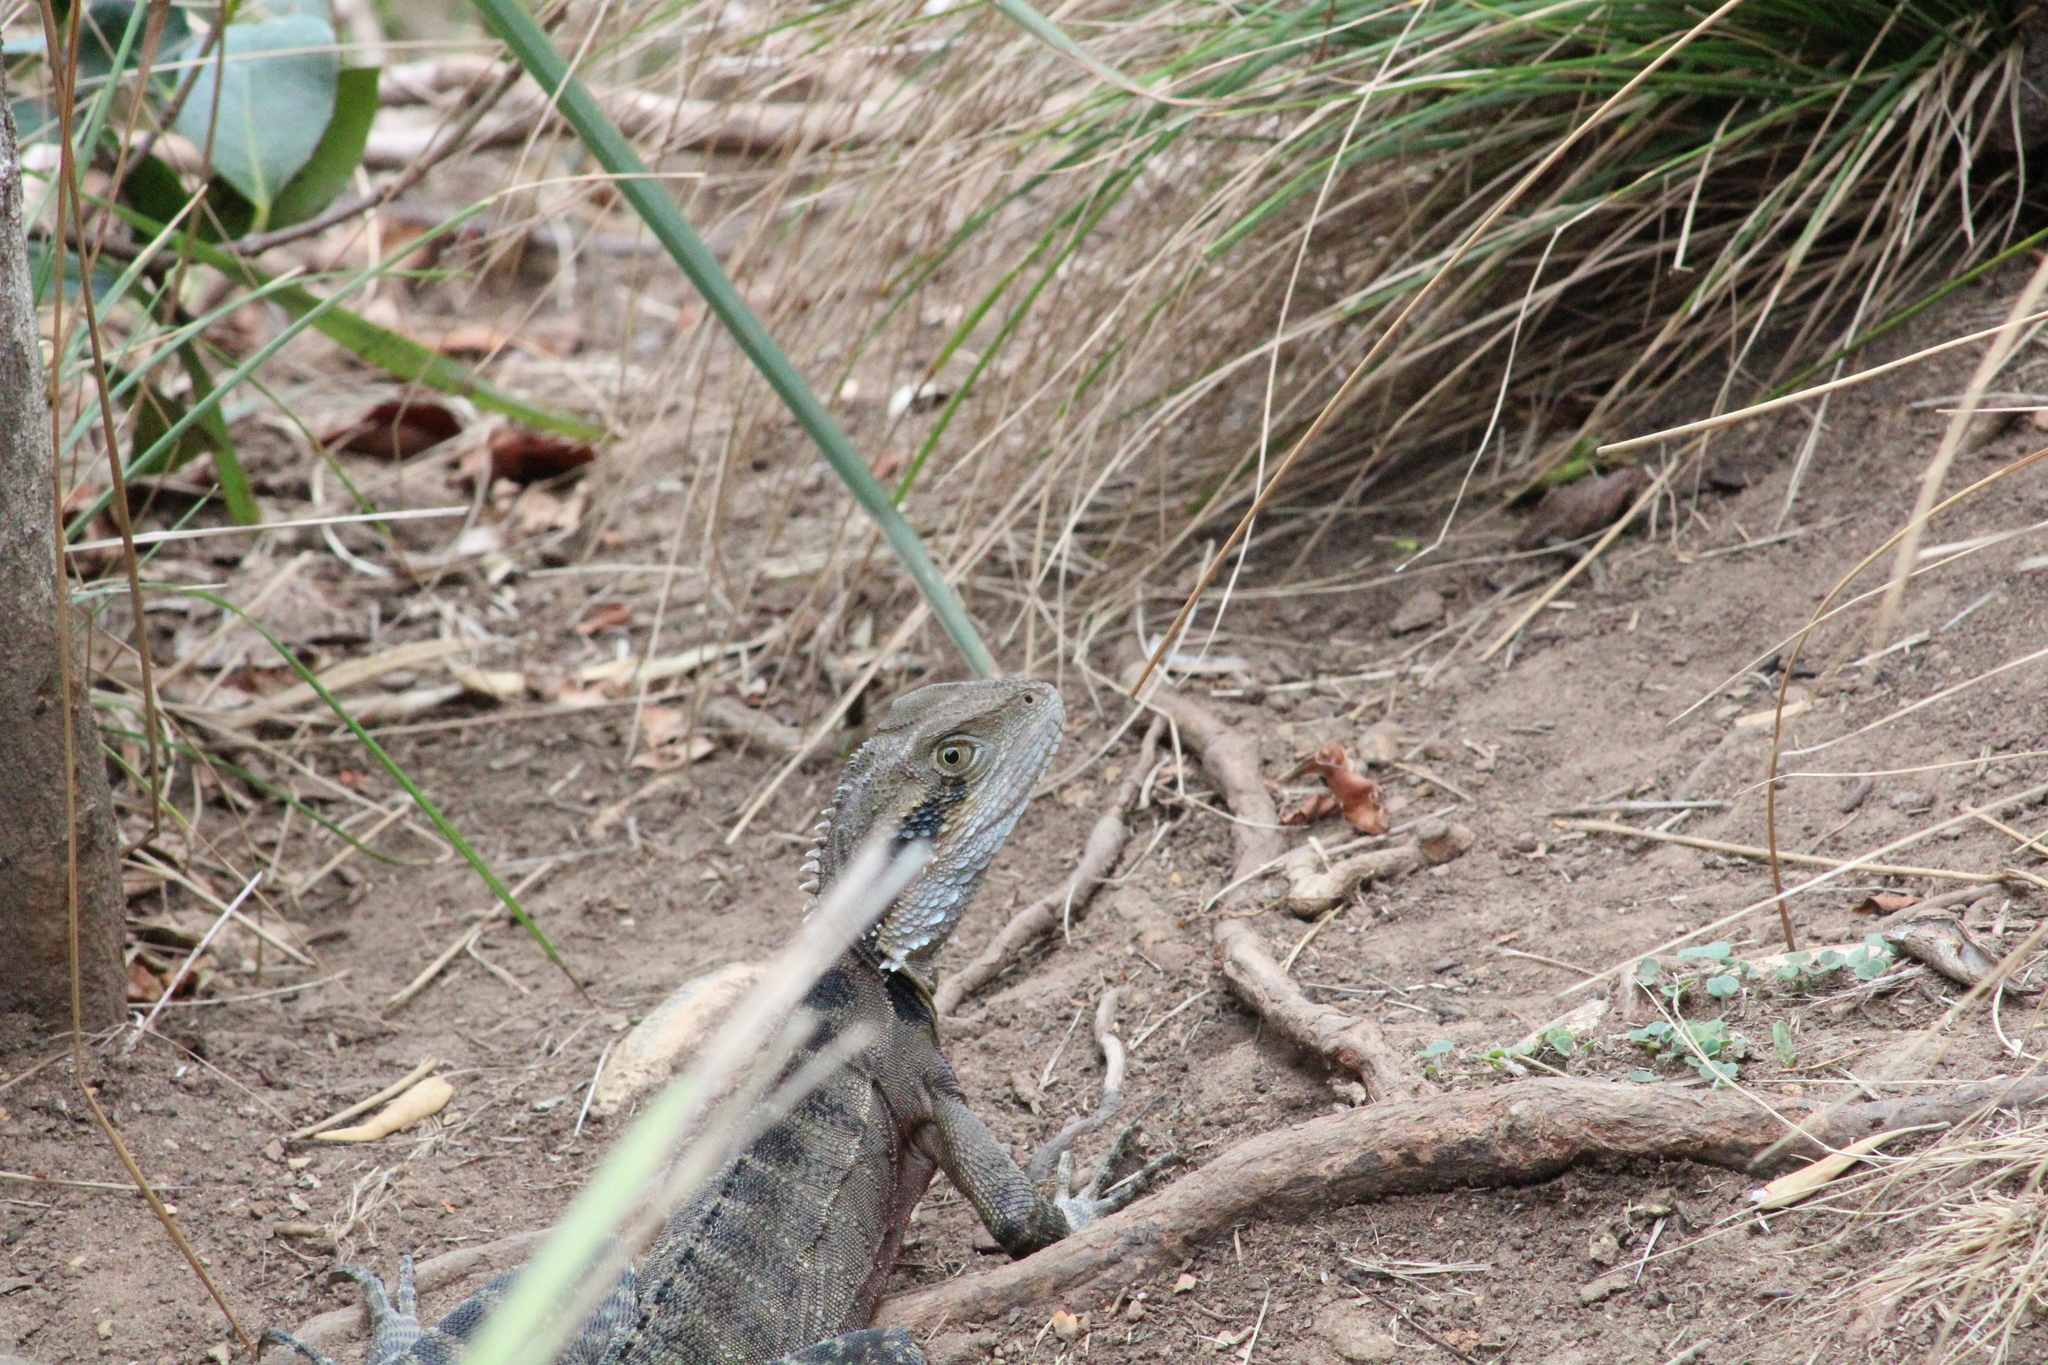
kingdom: Animalia
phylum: Chordata
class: Squamata
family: Agamidae
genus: Intellagama
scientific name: Intellagama lesueurii
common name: Eastern water dragon
